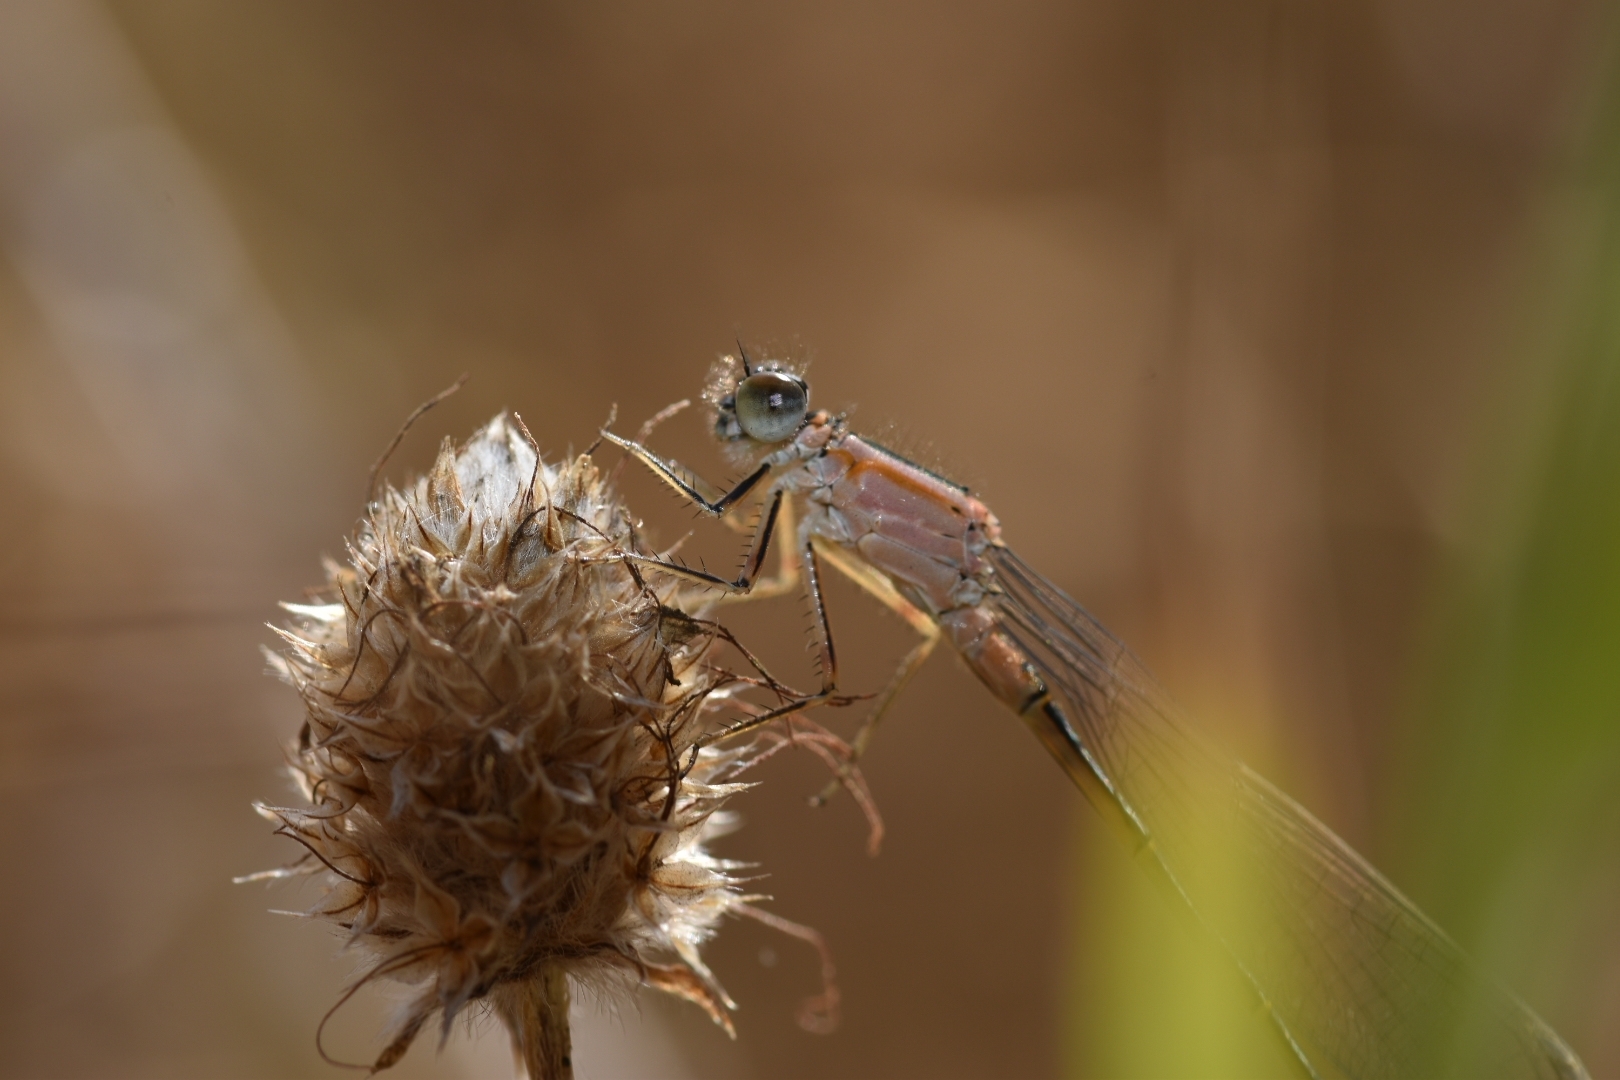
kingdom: Animalia
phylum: Arthropoda
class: Insecta
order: Odonata
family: Coenagrionidae
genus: Ischnura
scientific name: Ischnura genei
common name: Island bluetail
